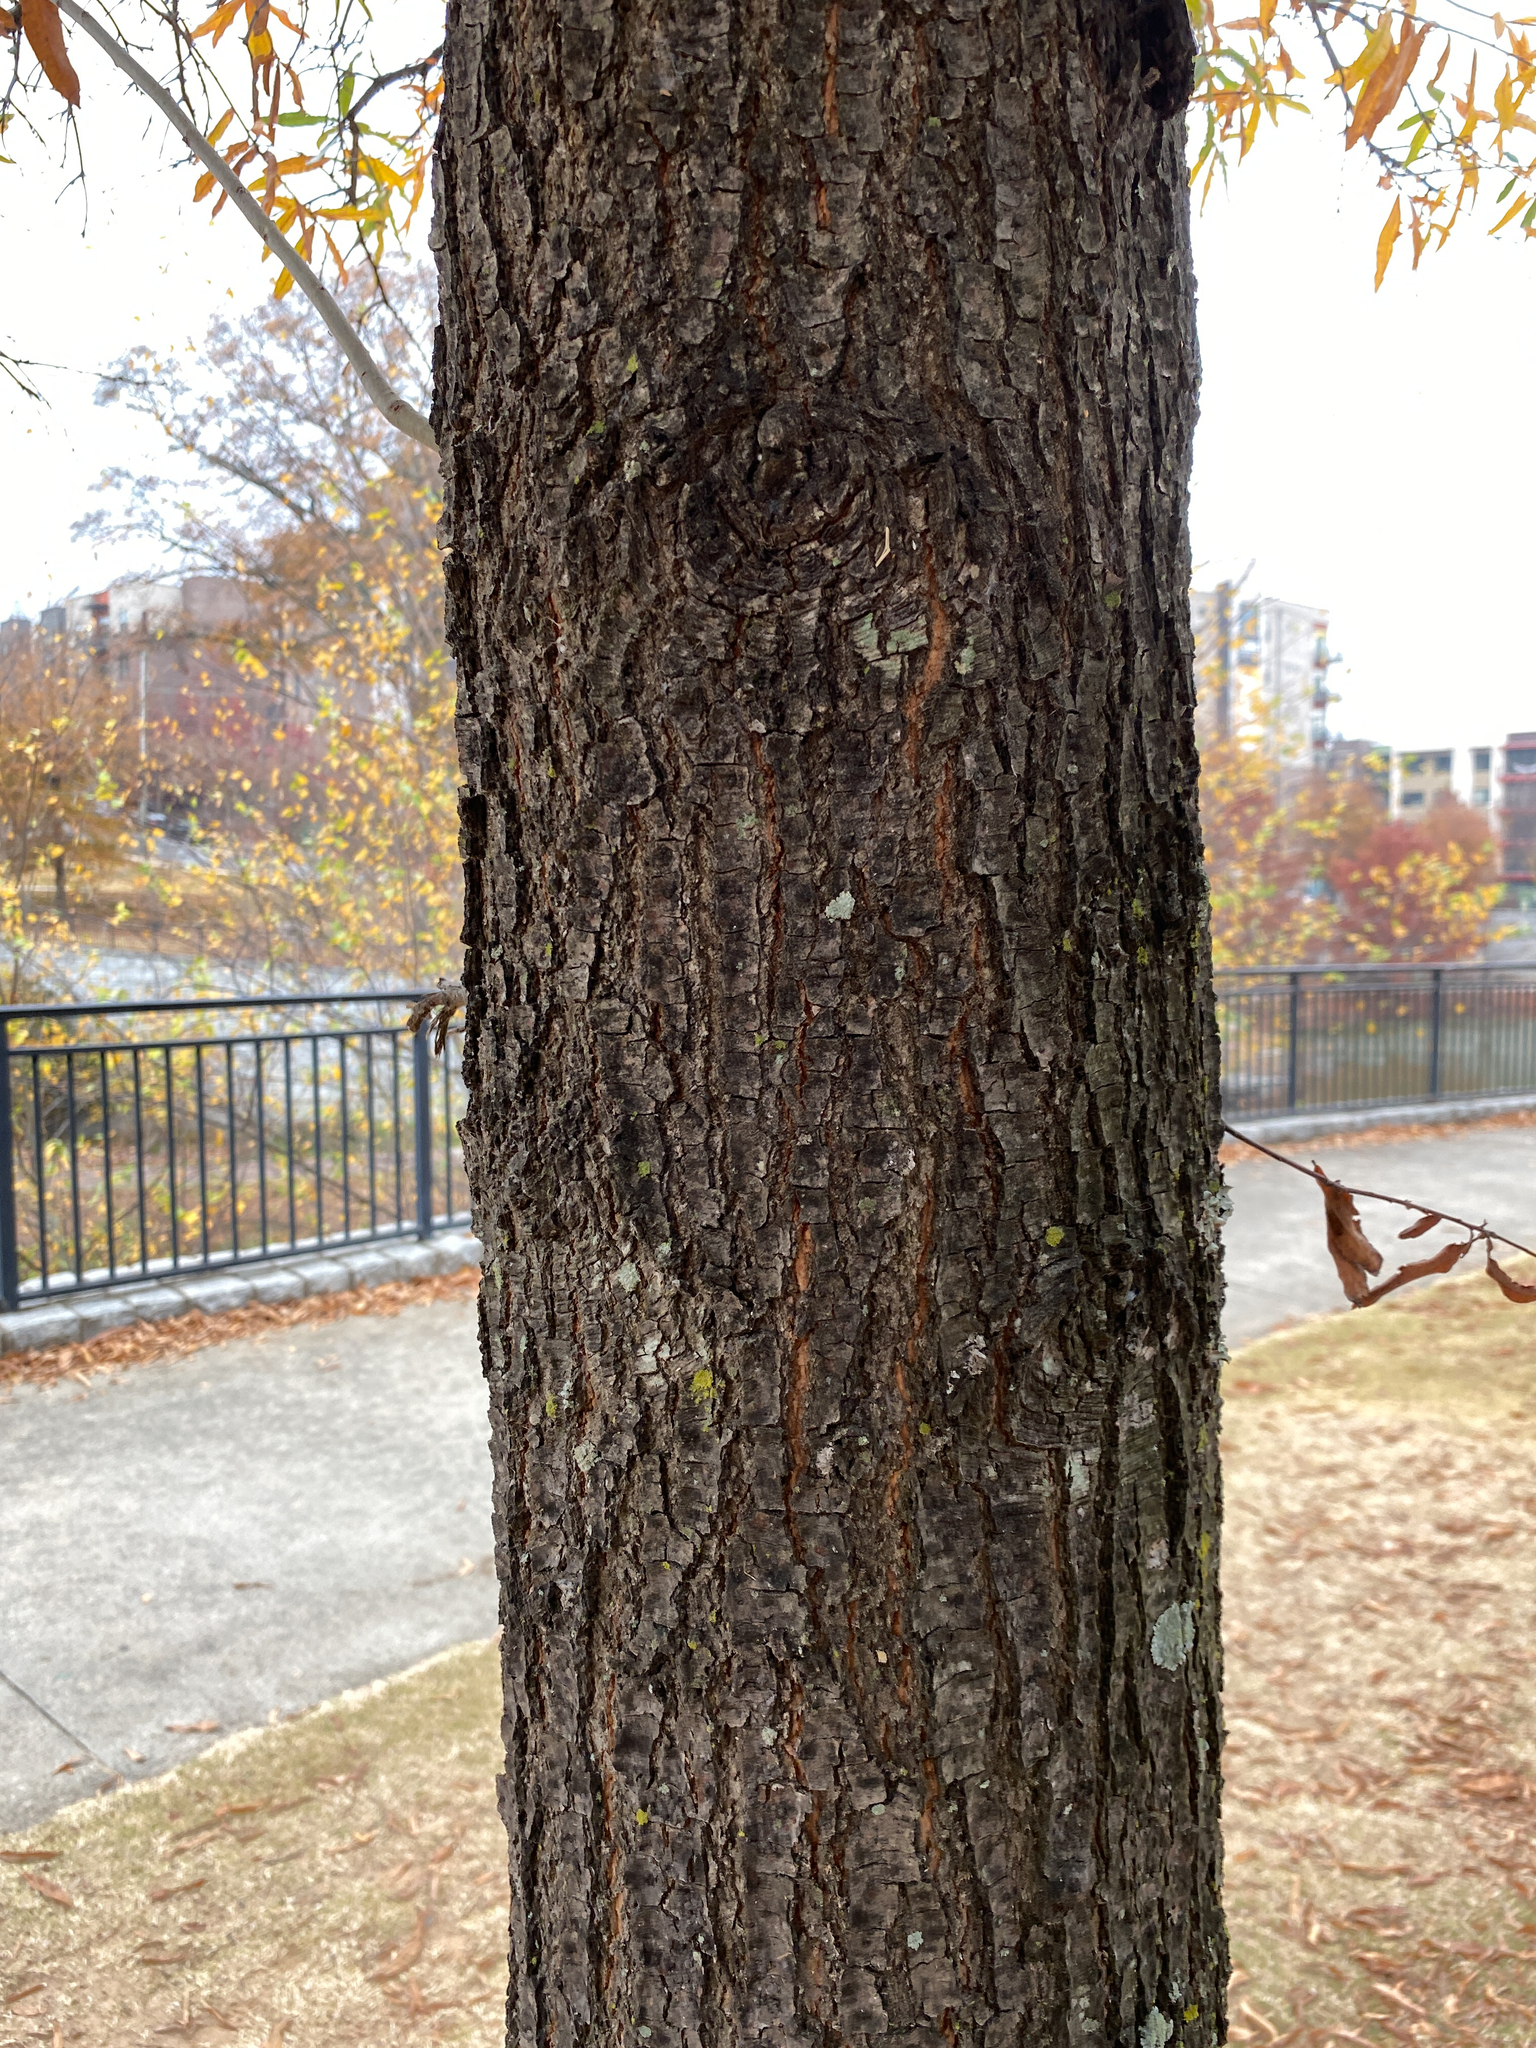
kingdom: Plantae
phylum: Tracheophyta
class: Magnoliopsida
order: Fagales
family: Fagaceae
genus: Quercus
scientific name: Quercus phellos
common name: Willow oak
